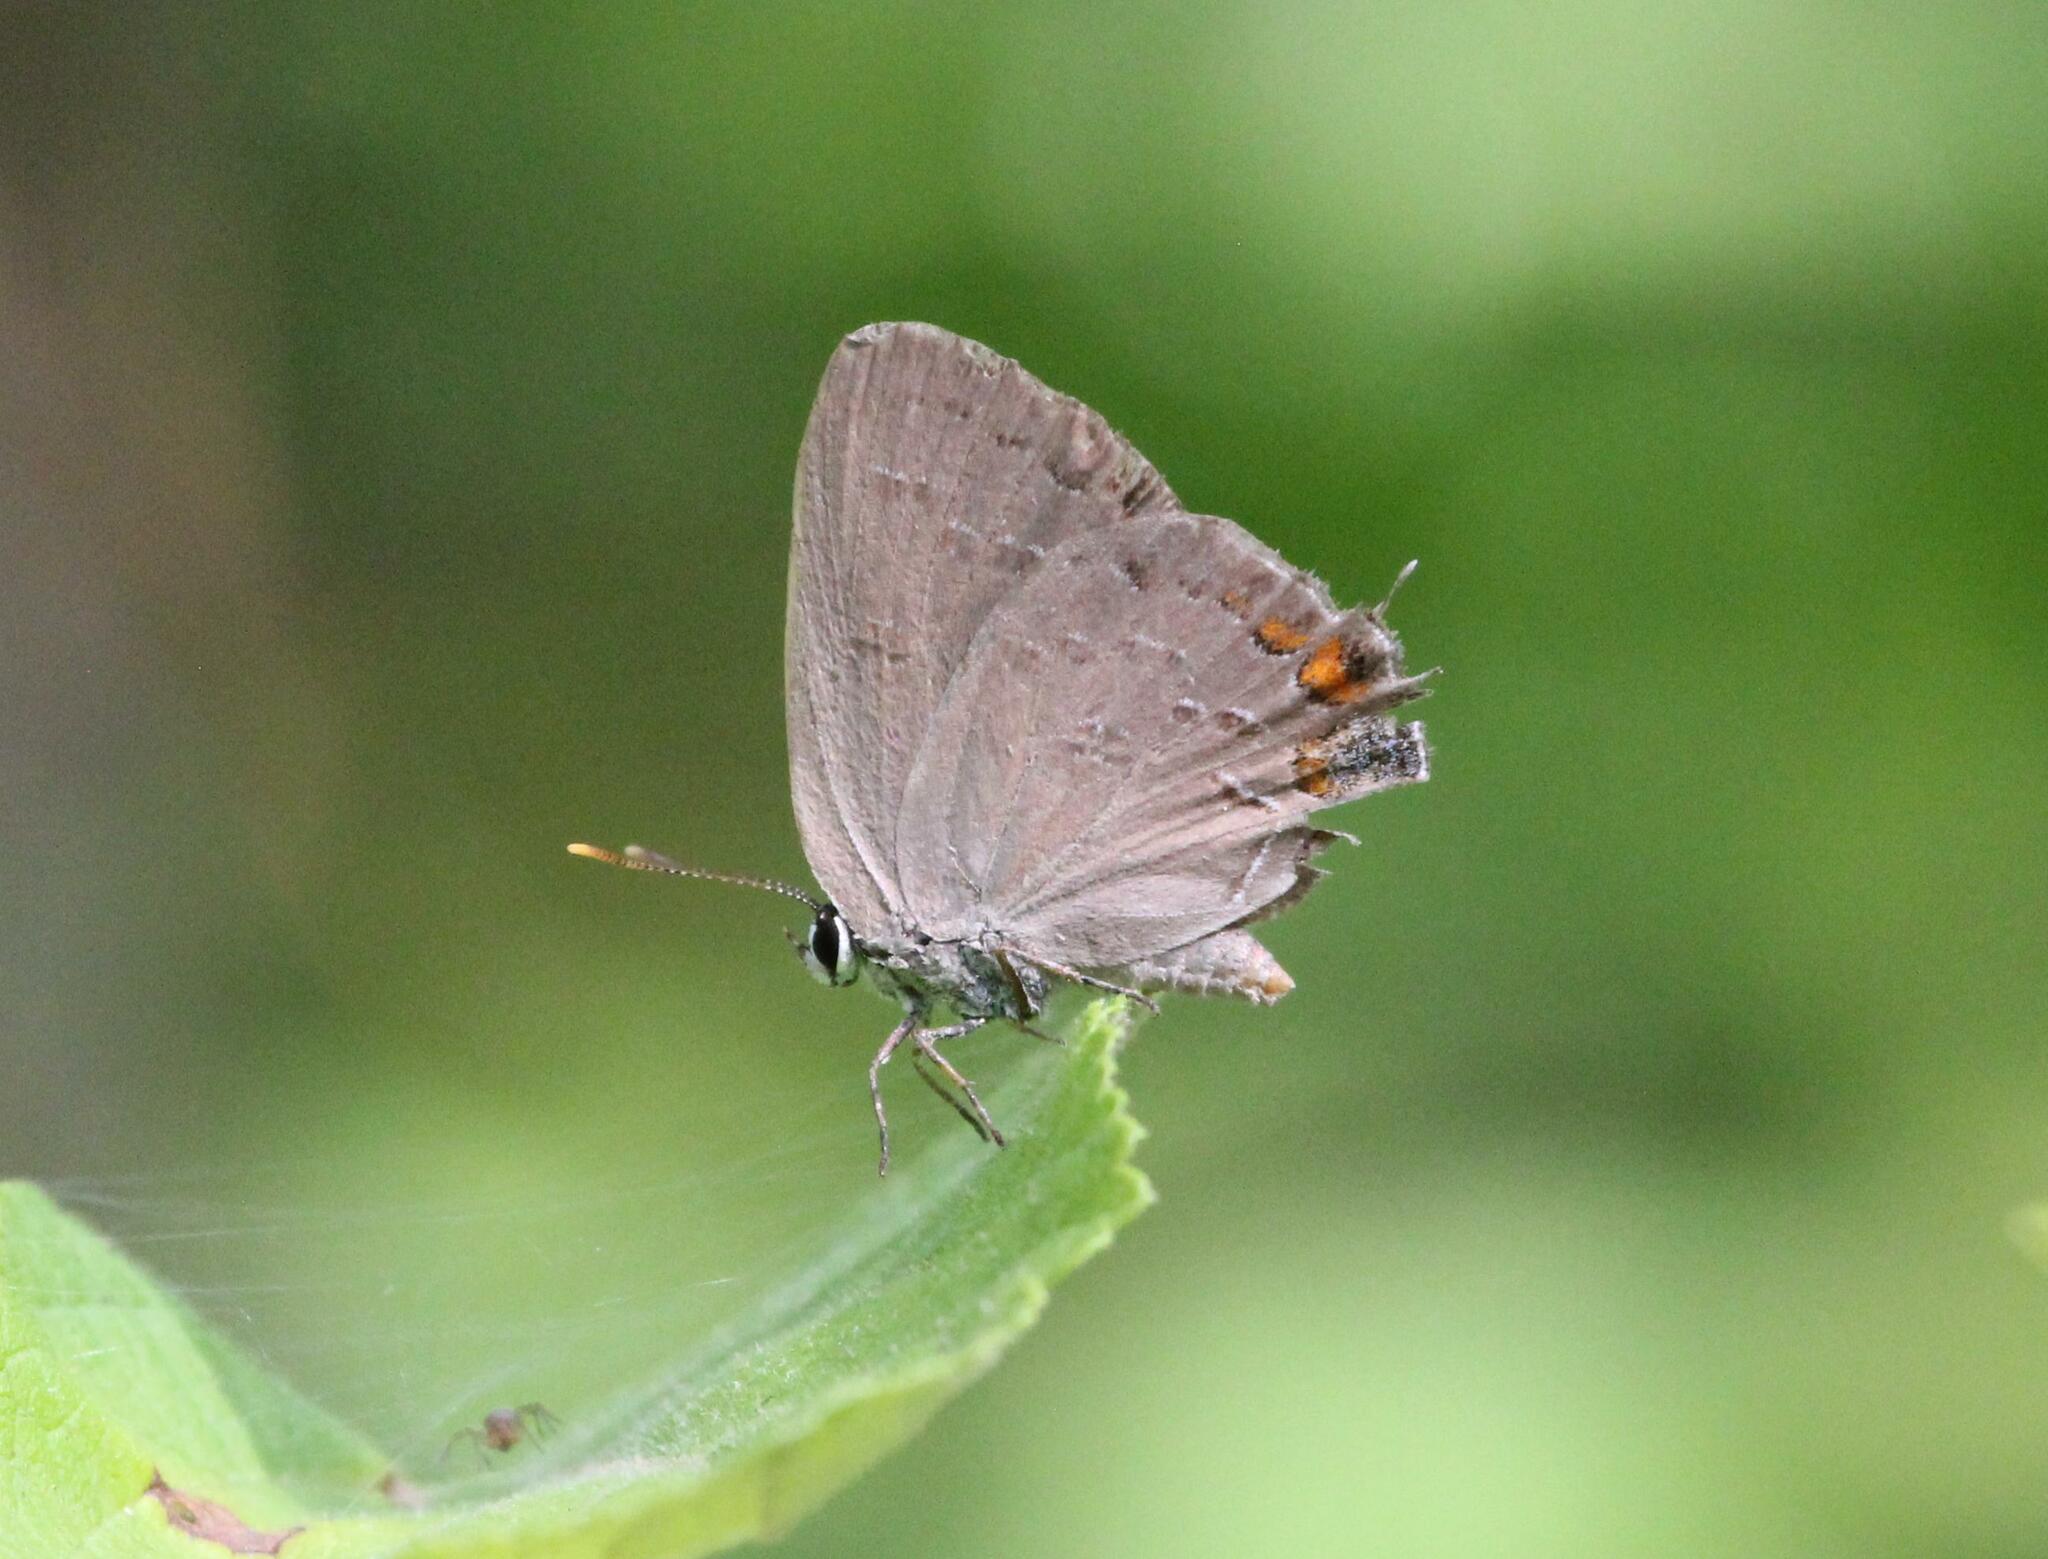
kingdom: Animalia
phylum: Arthropoda
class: Insecta
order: Lepidoptera
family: Lycaenidae
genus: Strymon
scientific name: Strymon kingi
